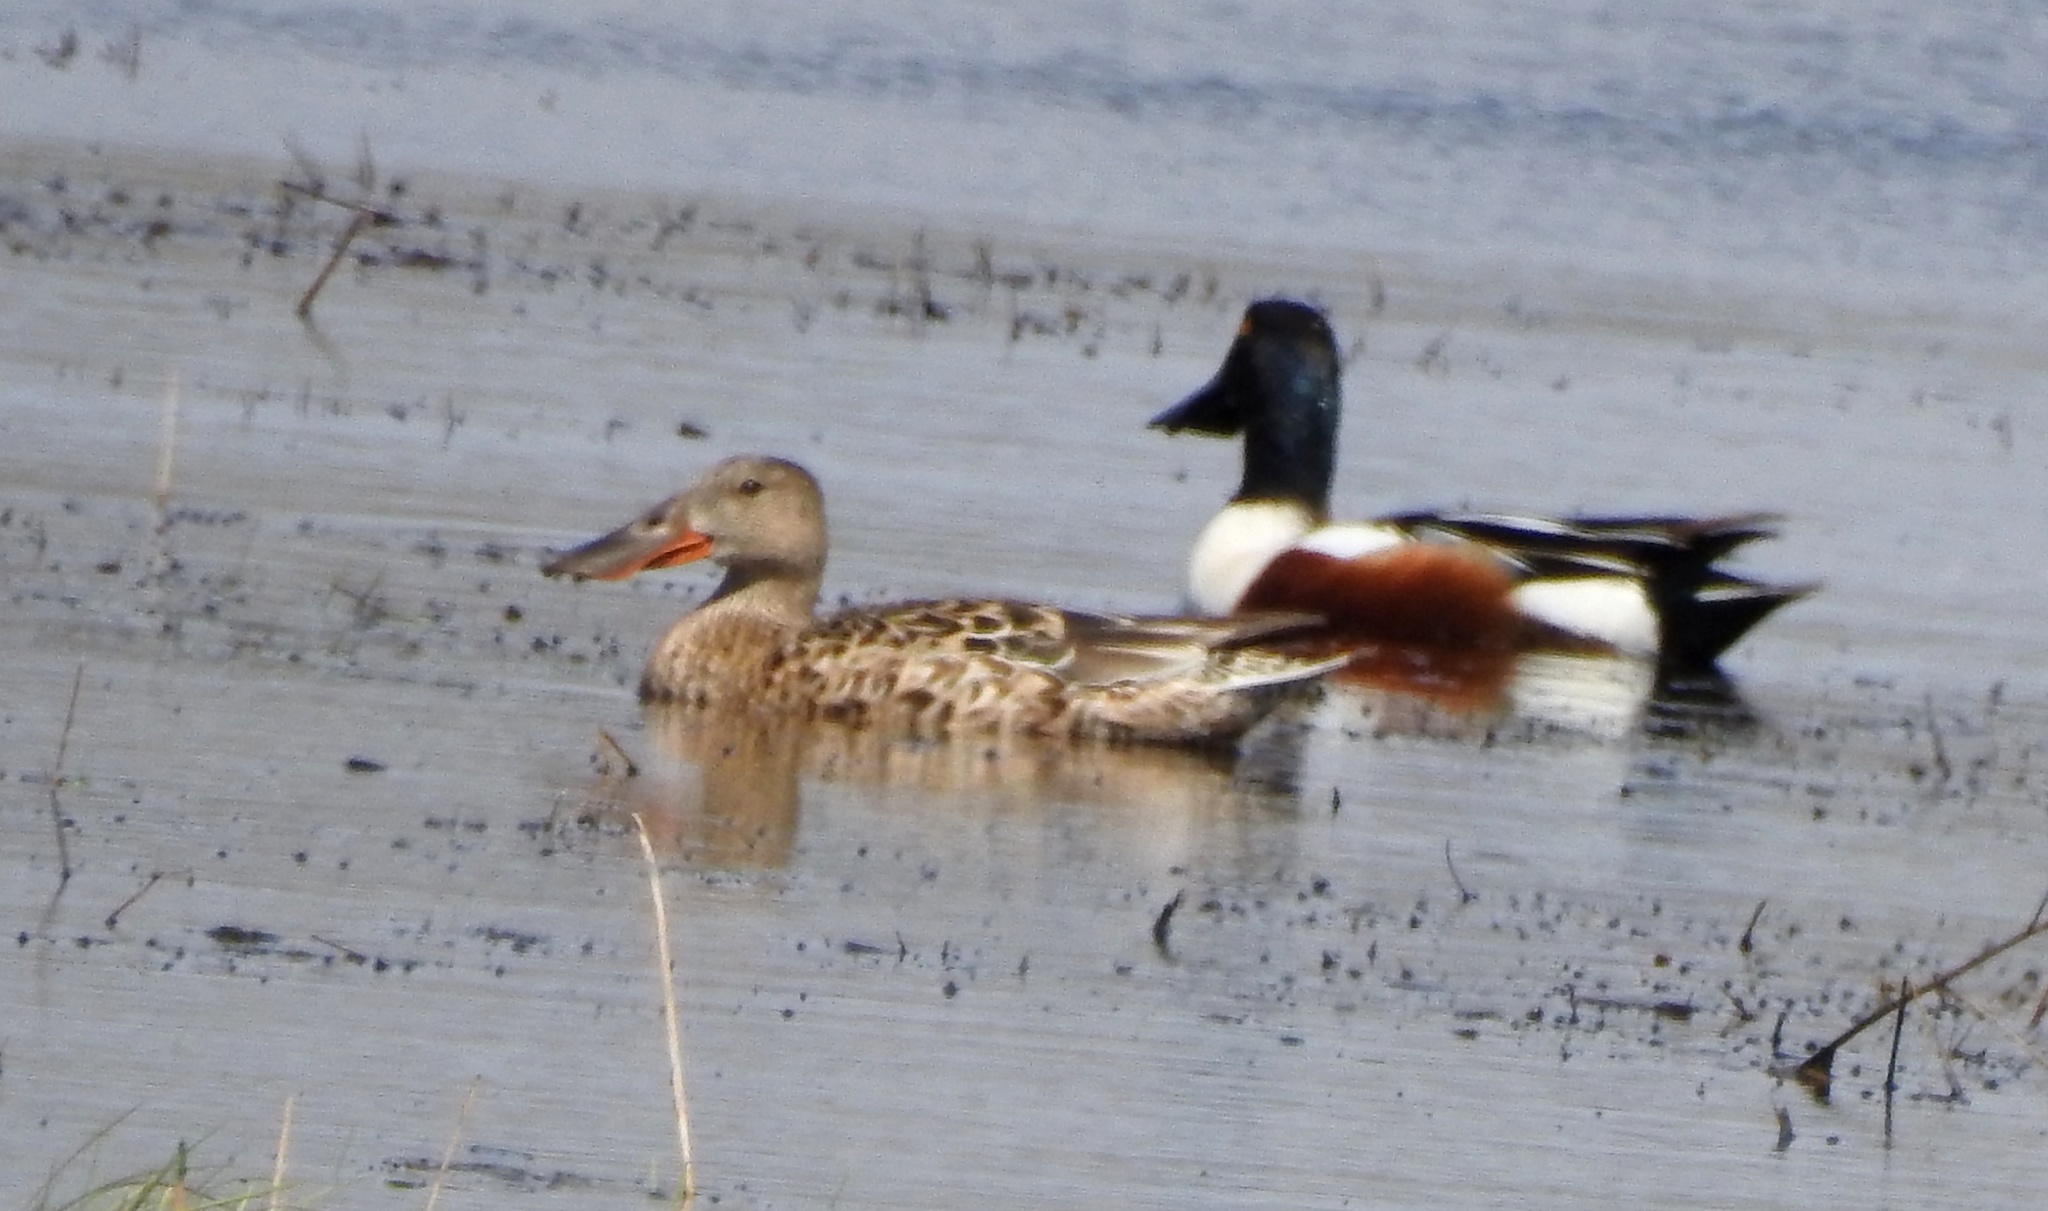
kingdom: Animalia
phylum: Chordata
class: Aves
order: Anseriformes
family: Anatidae
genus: Spatula
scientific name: Spatula clypeata
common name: Northern shoveler
